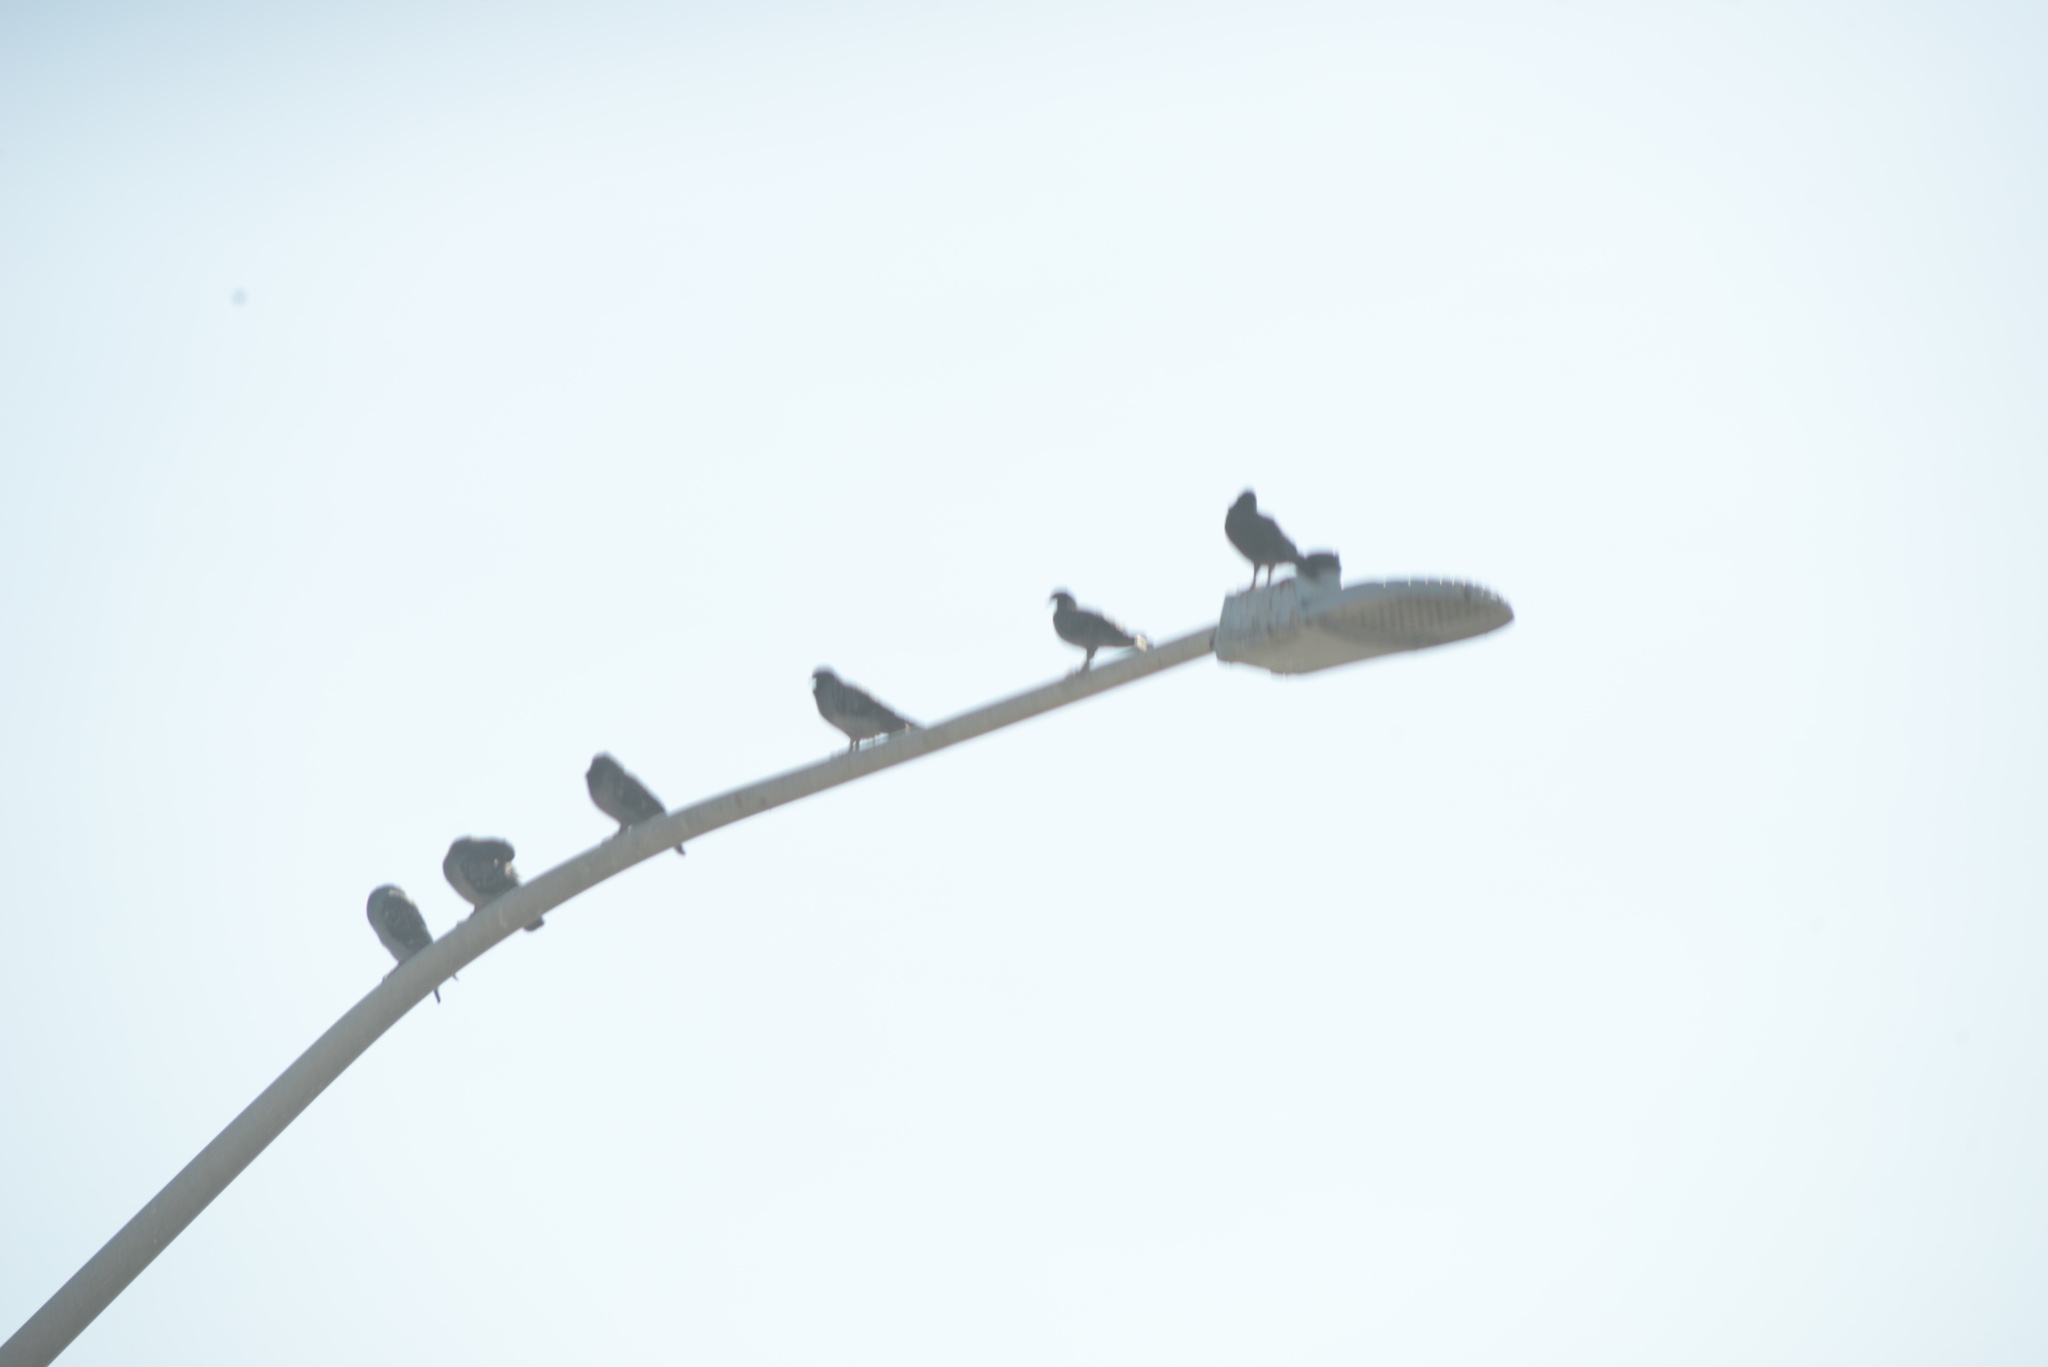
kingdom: Animalia
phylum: Chordata
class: Aves
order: Columbiformes
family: Columbidae
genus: Columba
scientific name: Columba livia
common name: Rock pigeon
